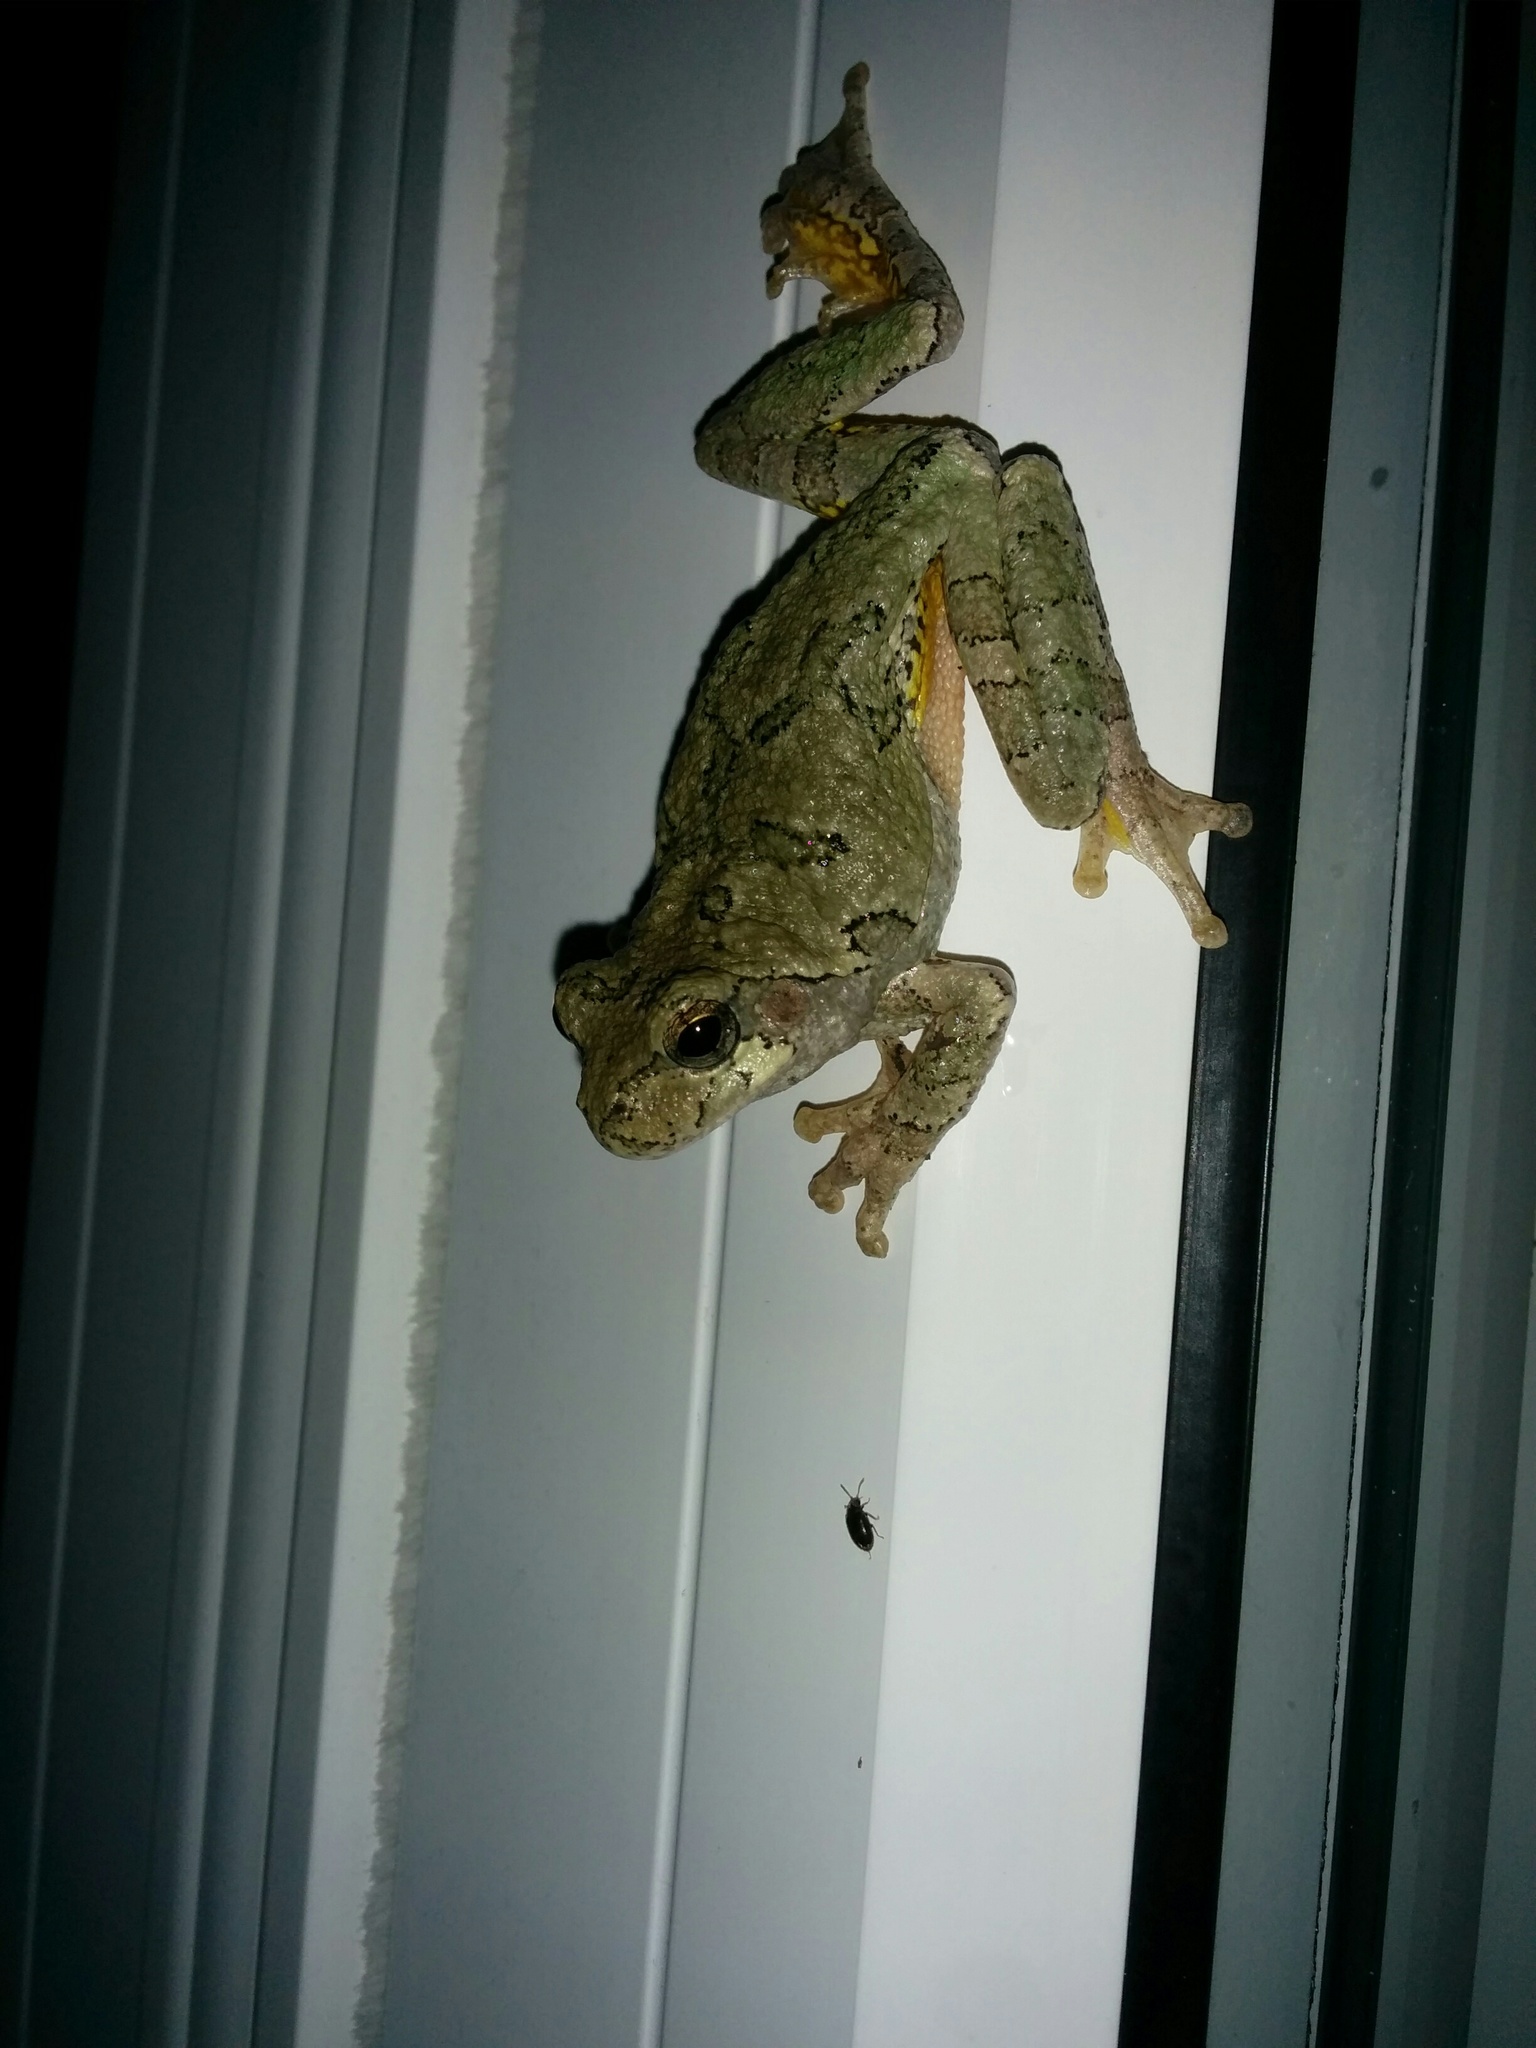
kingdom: Animalia
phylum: Chordata
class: Amphibia
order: Anura
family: Hylidae
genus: Dryophytes
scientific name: Dryophytes versicolor
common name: Gray treefrog
